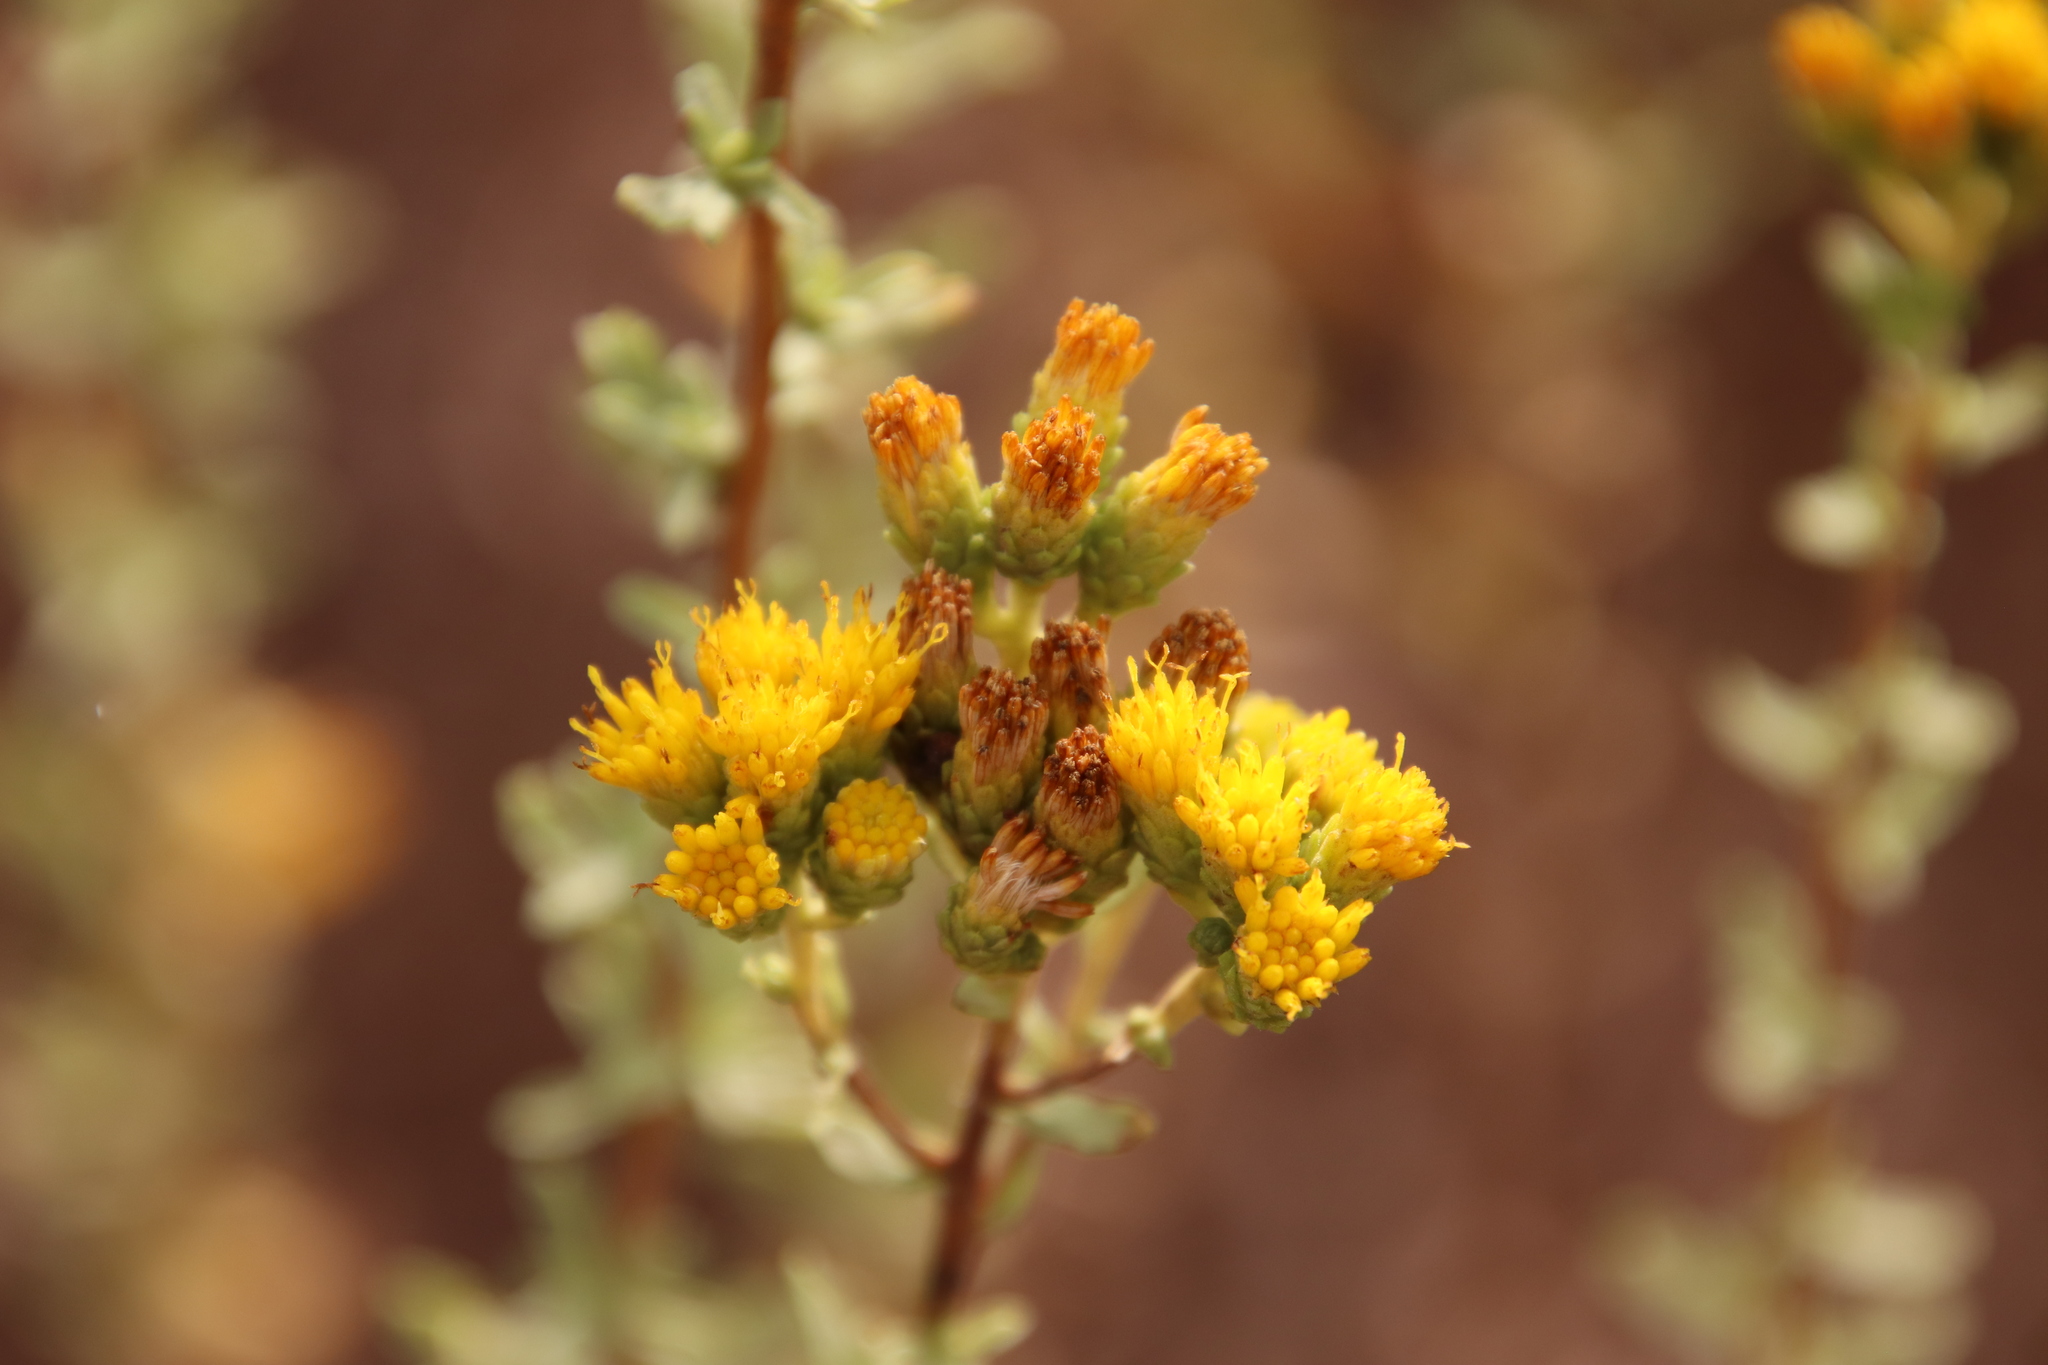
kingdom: Plantae
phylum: Tracheophyta
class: Magnoliopsida
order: Asterales
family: Asteraceae
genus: Isocoma
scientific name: Isocoma menziesii
